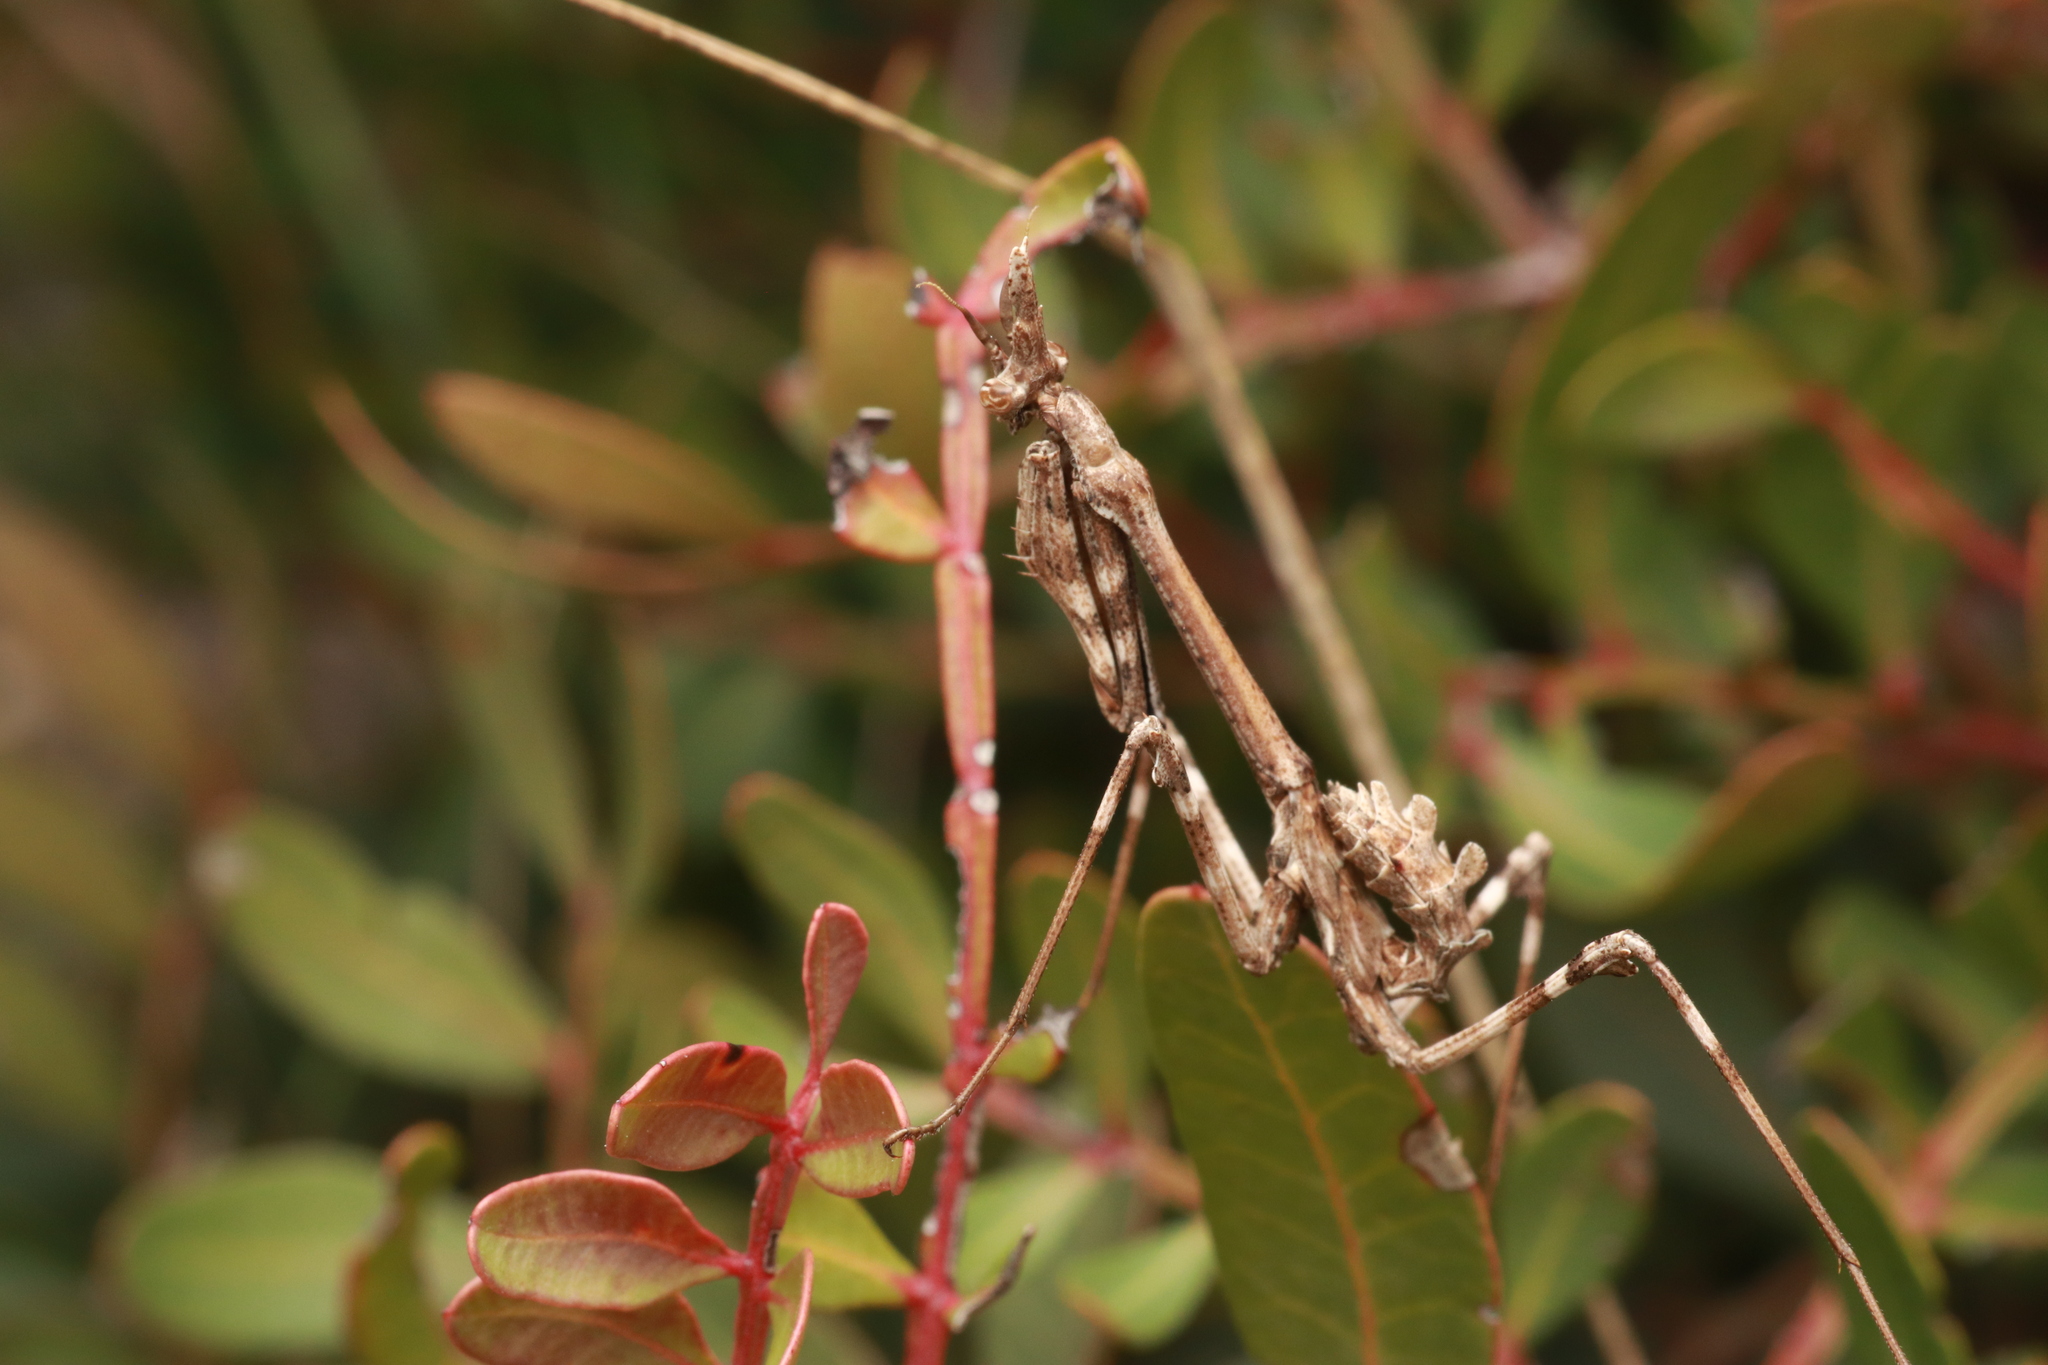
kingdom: Animalia
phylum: Arthropoda
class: Insecta
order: Mantodea
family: Empusidae
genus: Empusa
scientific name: Empusa pennata
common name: Conehead mantis
